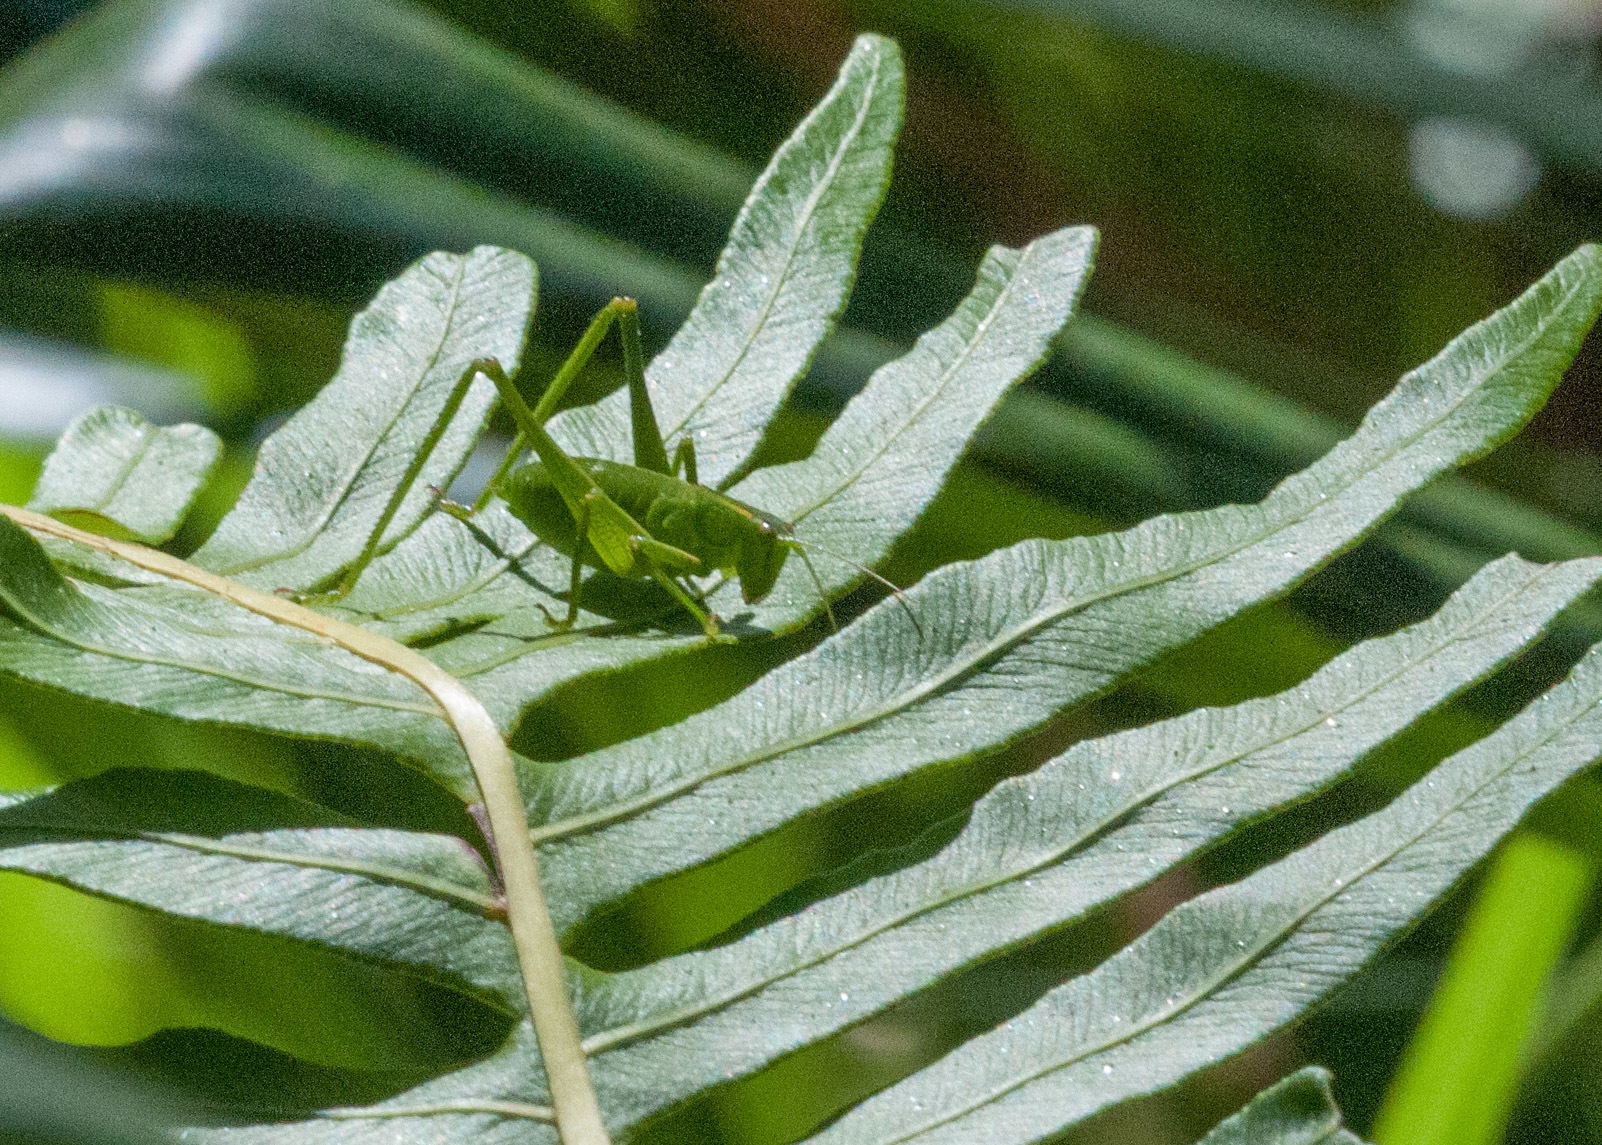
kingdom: Animalia
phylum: Arthropoda
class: Insecta
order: Orthoptera
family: Tettigoniidae
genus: Caedicia
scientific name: Caedicia simplex
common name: Common garden katydid
